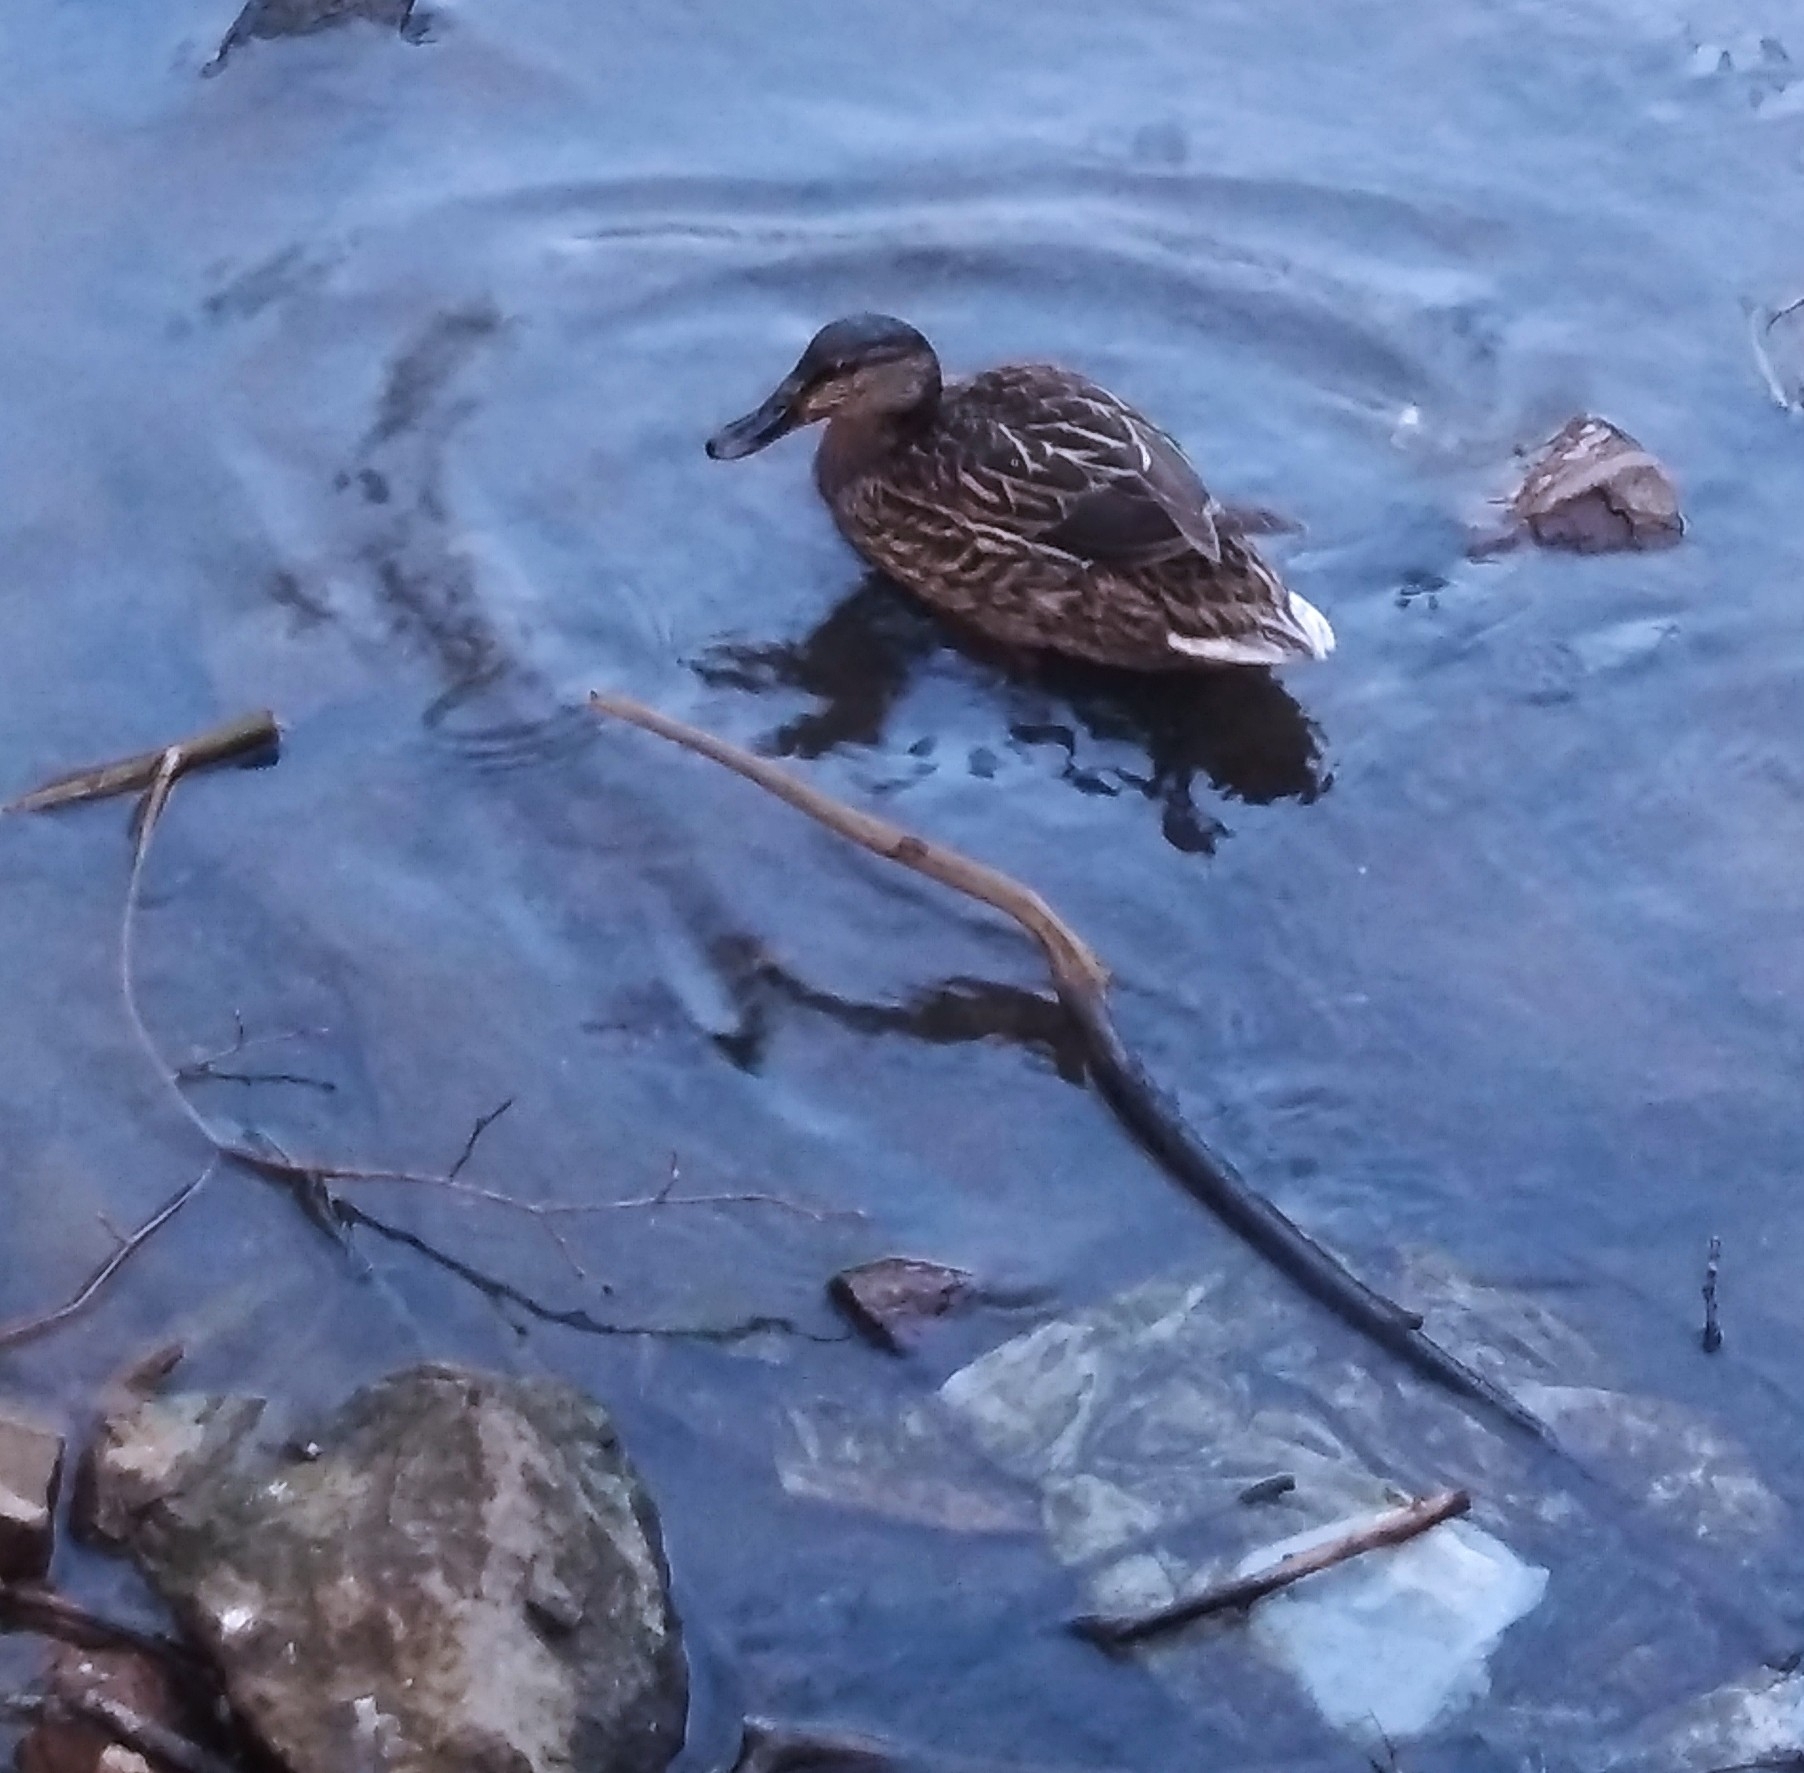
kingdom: Animalia
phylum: Chordata
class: Aves
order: Anseriformes
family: Anatidae
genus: Anas
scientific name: Anas platyrhynchos
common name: Mallard
